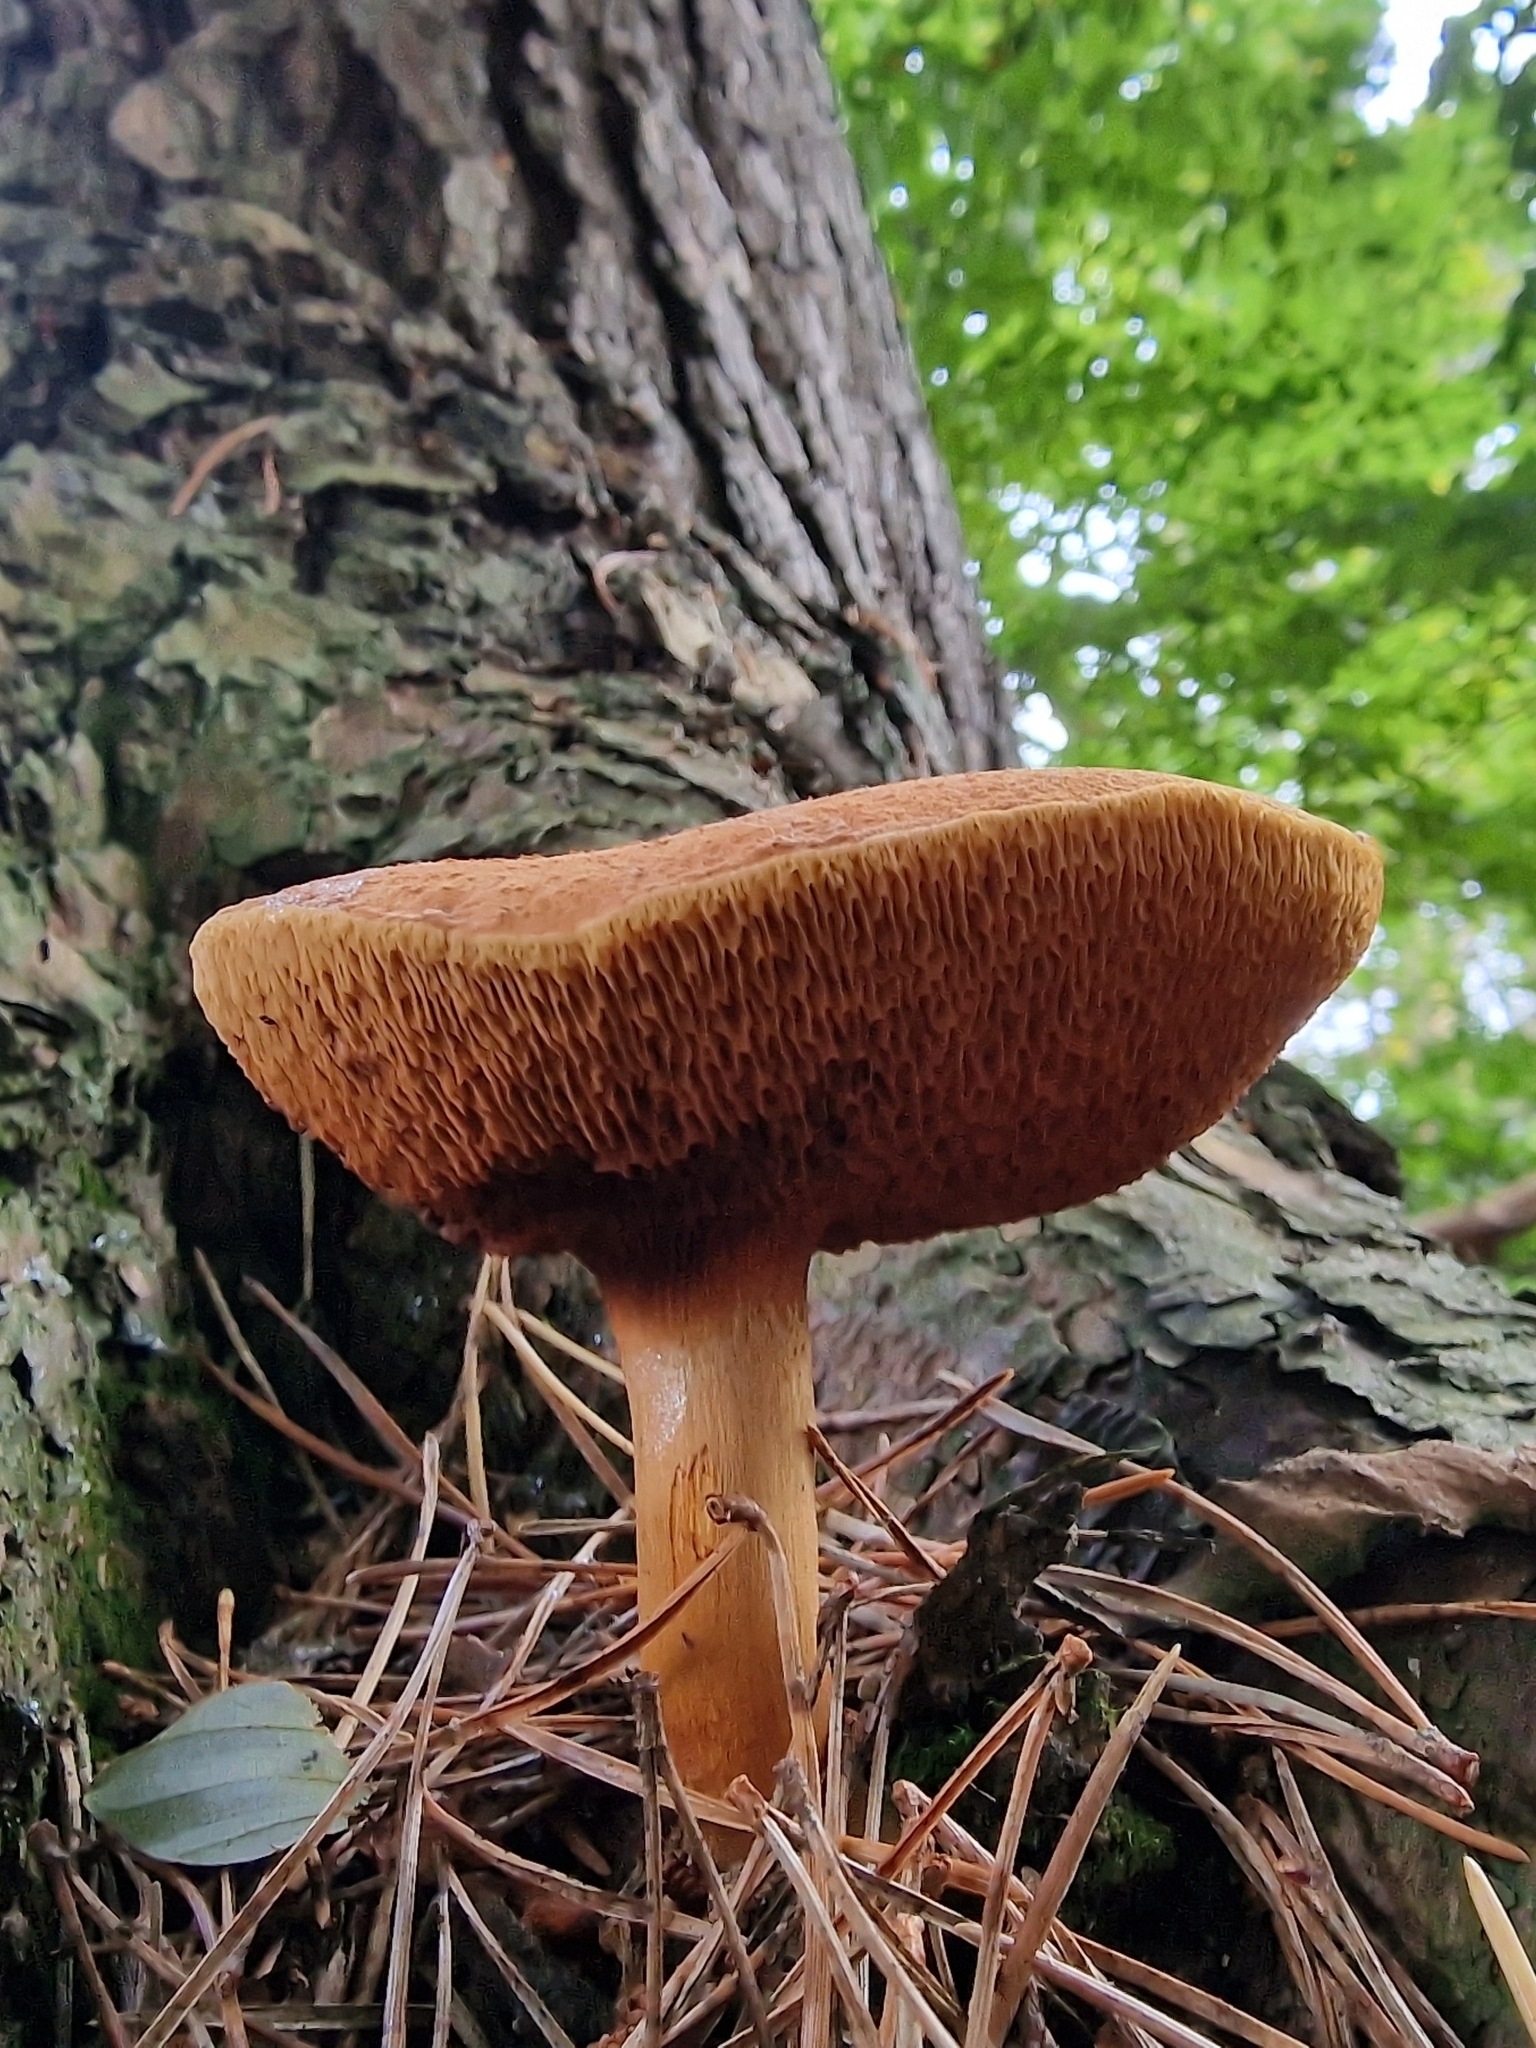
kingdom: Fungi
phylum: Basidiomycota
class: Agaricomycetes
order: Boletales
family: Boletaceae
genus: Chalciporus
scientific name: Chalciporus piperatus
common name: Peppery bolete
